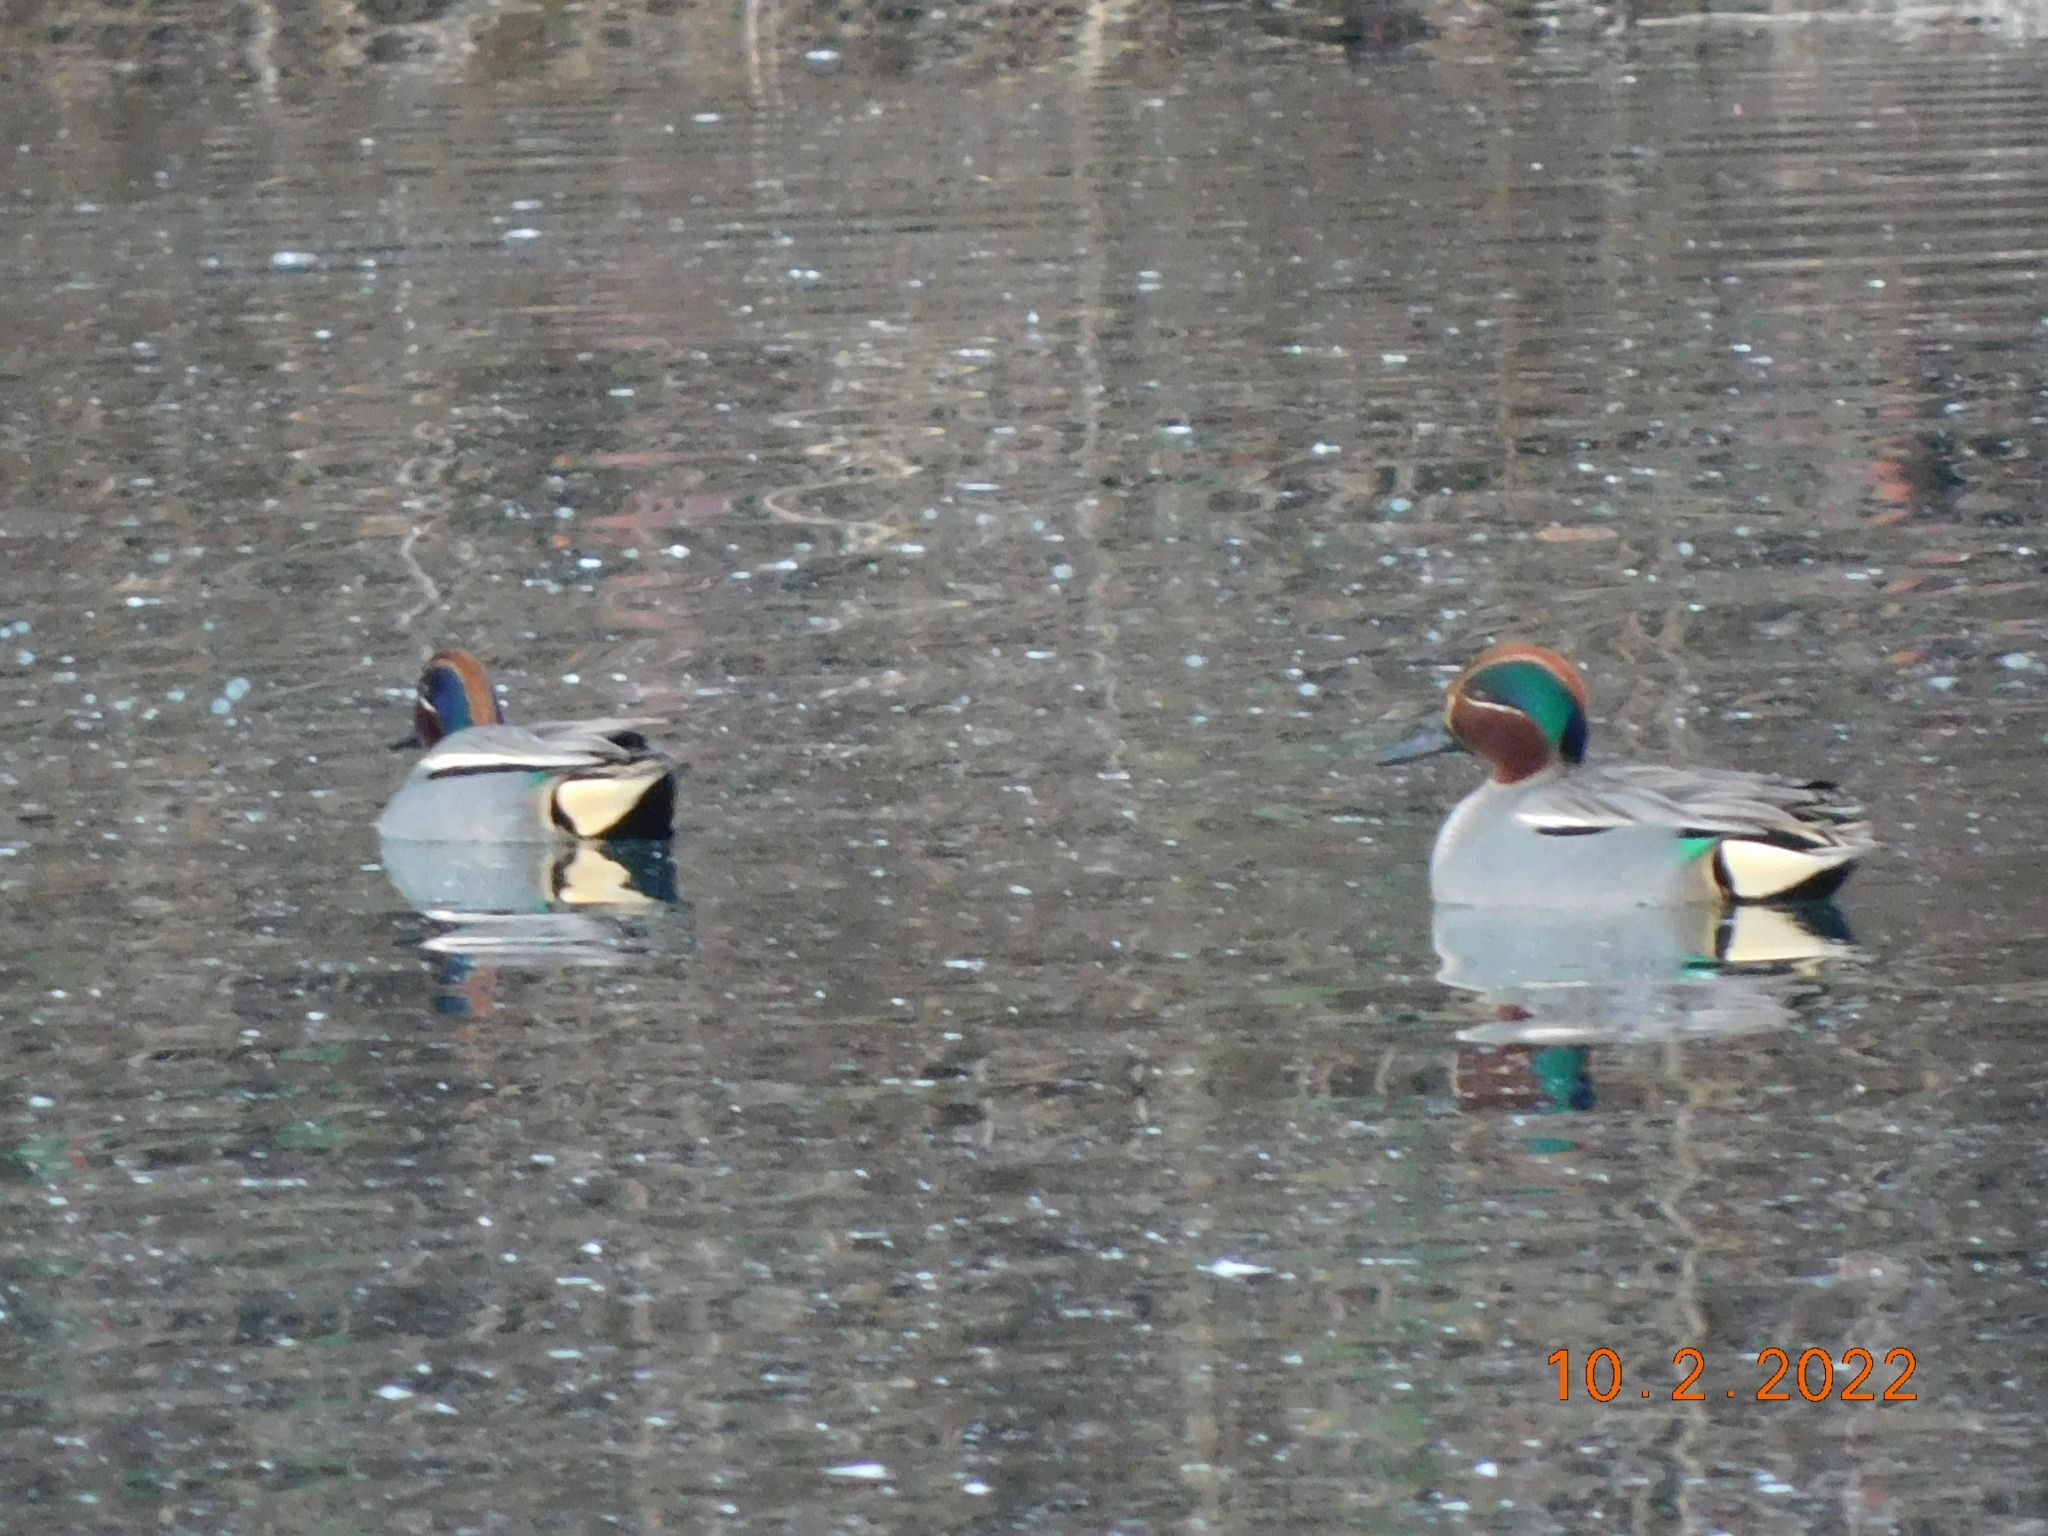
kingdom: Animalia
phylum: Chordata
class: Aves
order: Anseriformes
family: Anatidae
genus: Anas
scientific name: Anas crecca
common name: Eurasian teal
